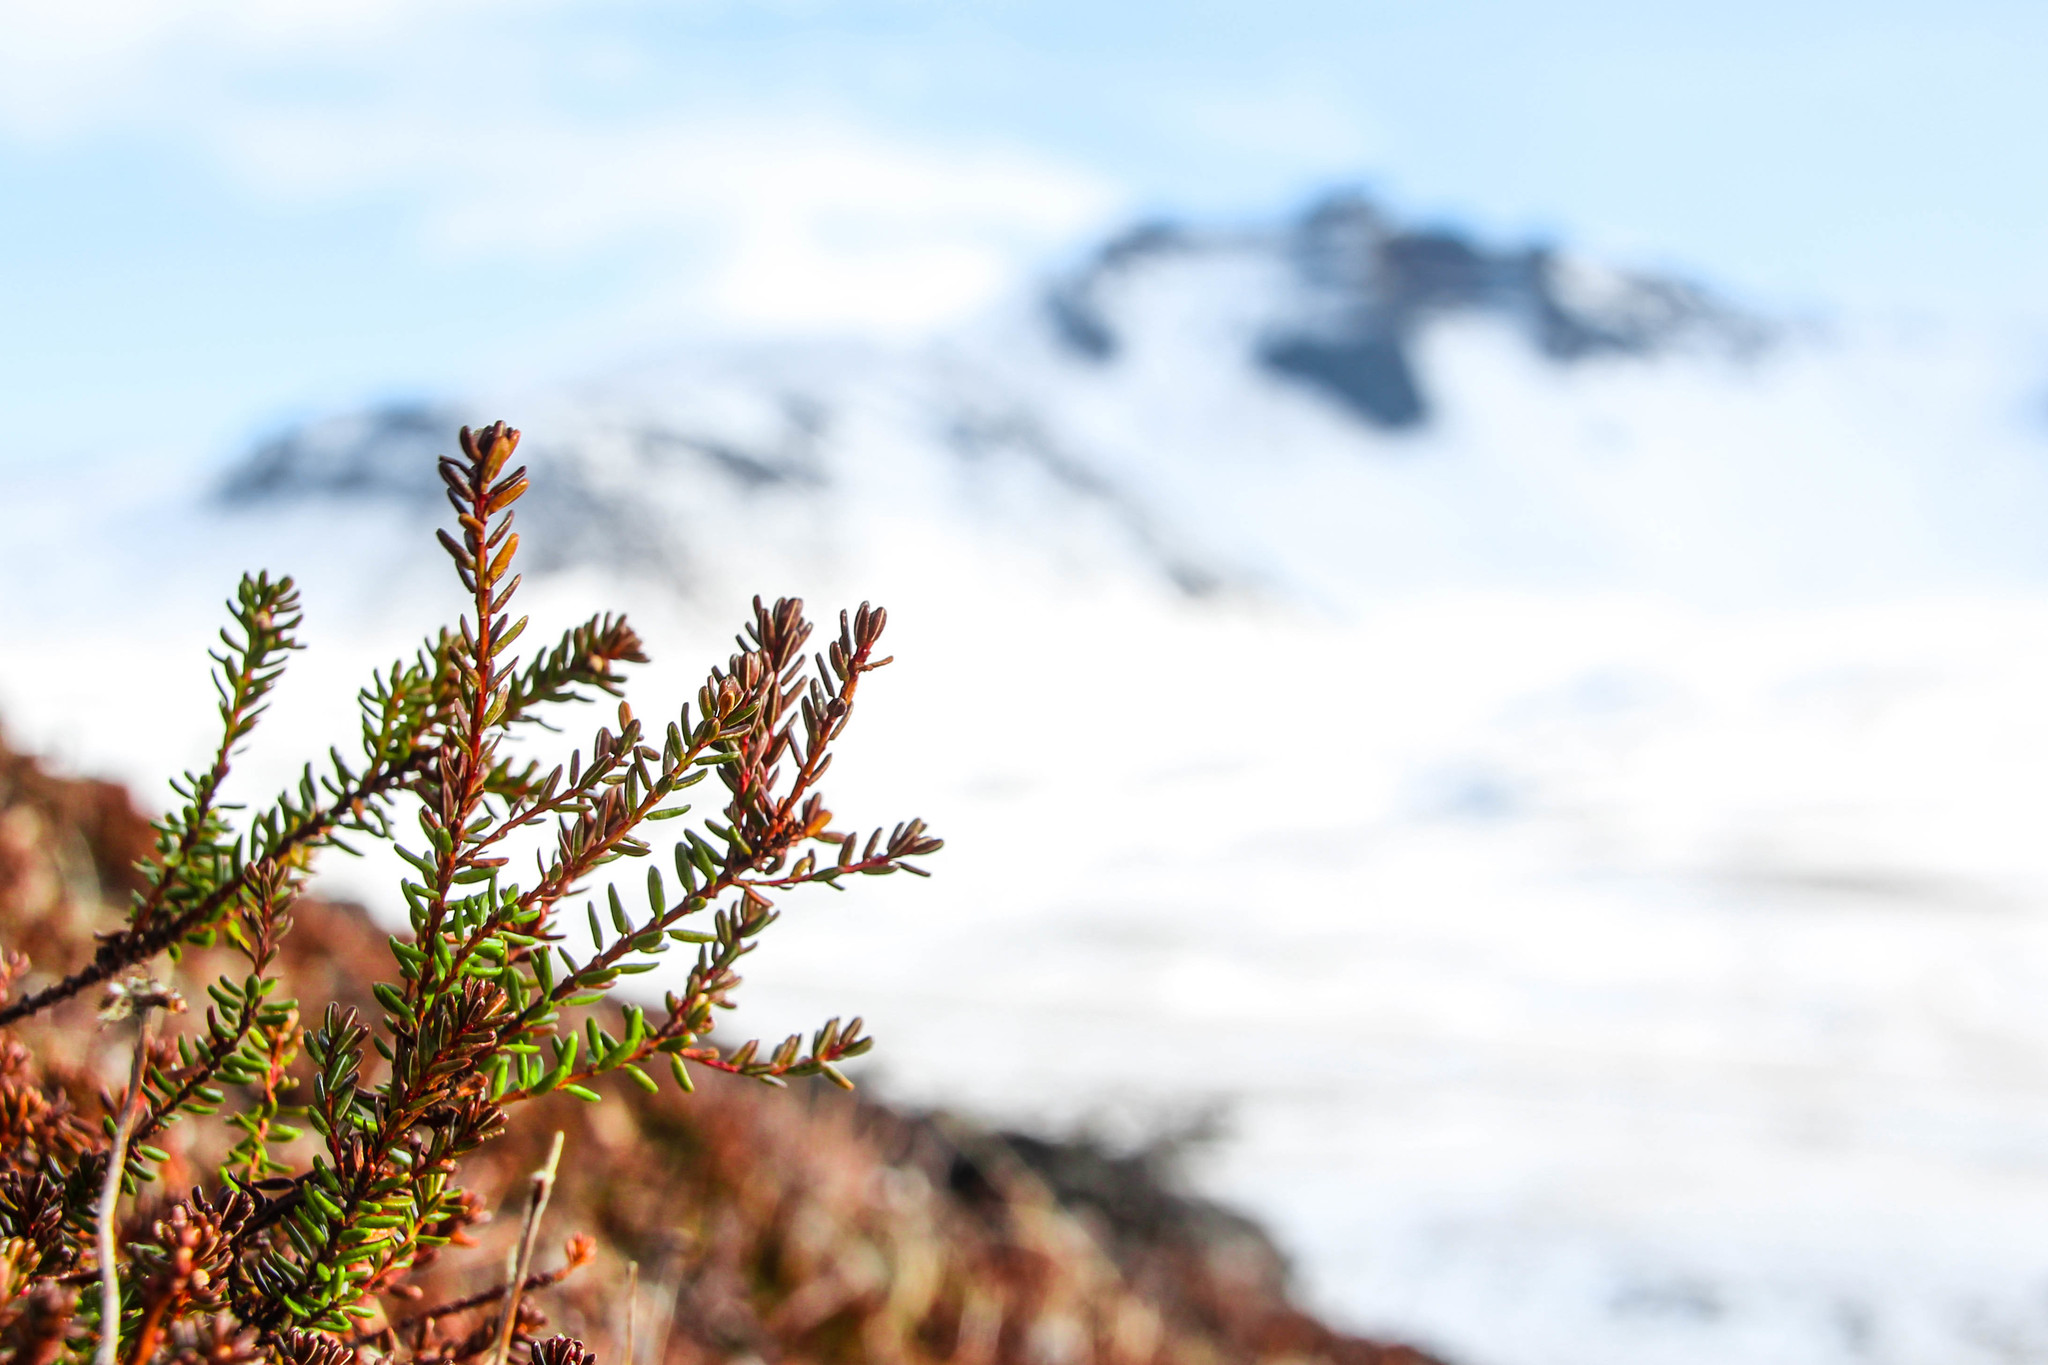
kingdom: Plantae
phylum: Tracheophyta
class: Magnoliopsida
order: Ericales
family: Ericaceae
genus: Empetrum
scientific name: Empetrum nigrum
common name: Black crowberry
